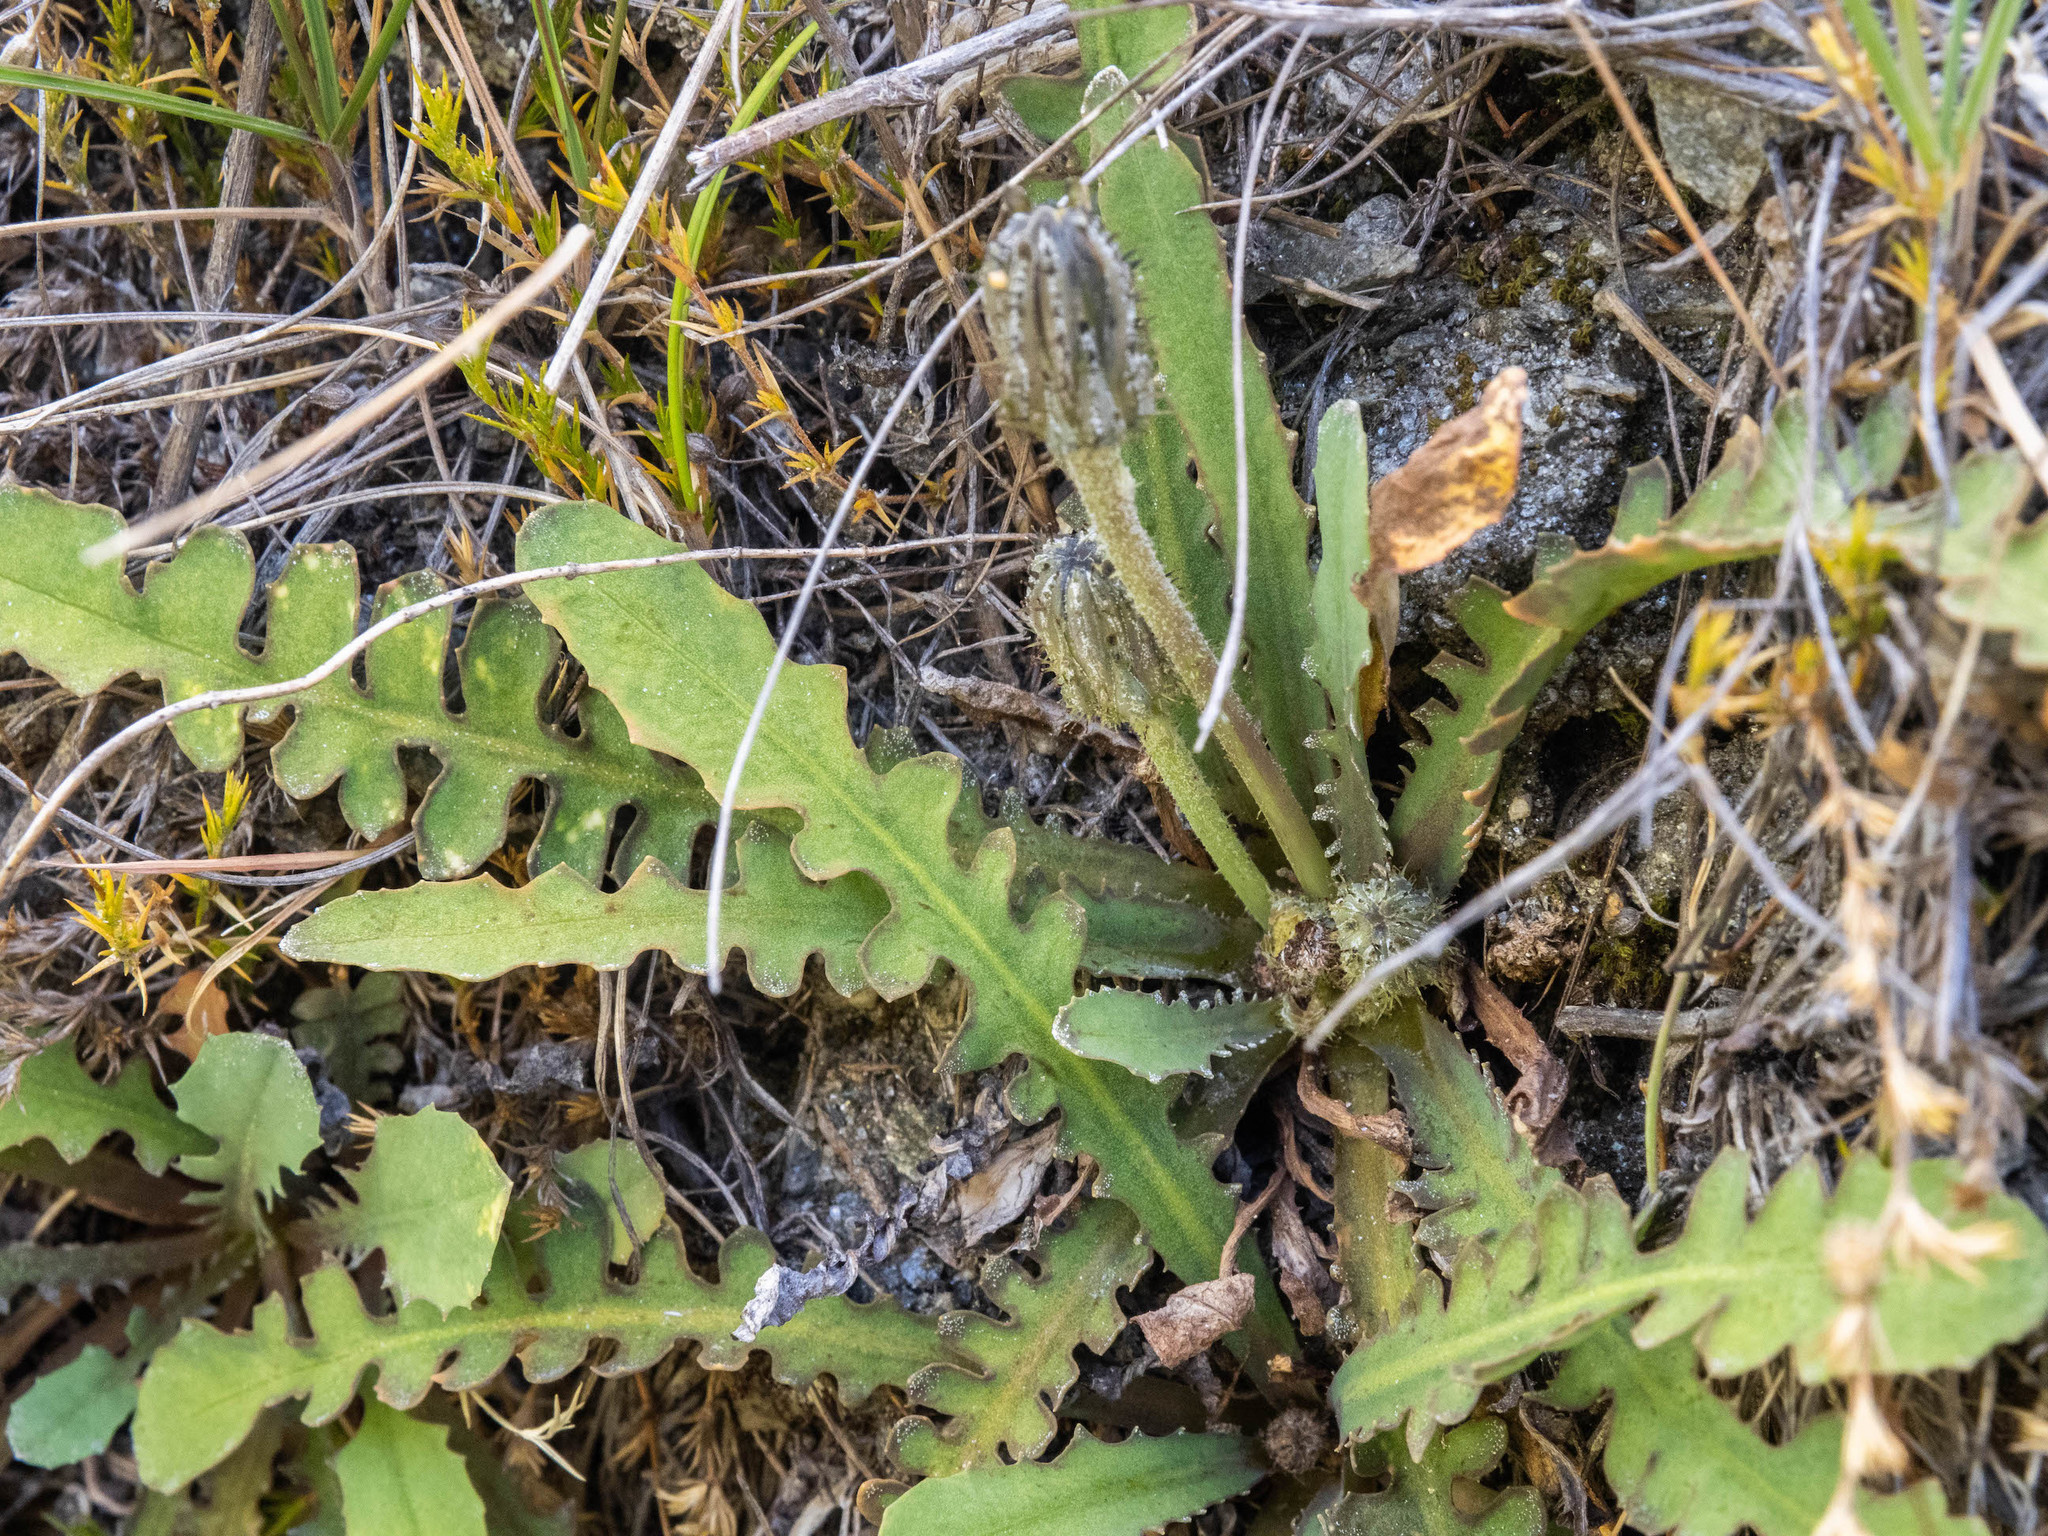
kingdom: Plantae
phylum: Tracheophyta
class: Magnoliopsida
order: Asterales
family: Asteraceae
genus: Sonchus
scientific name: Sonchus novae-zelandiae
